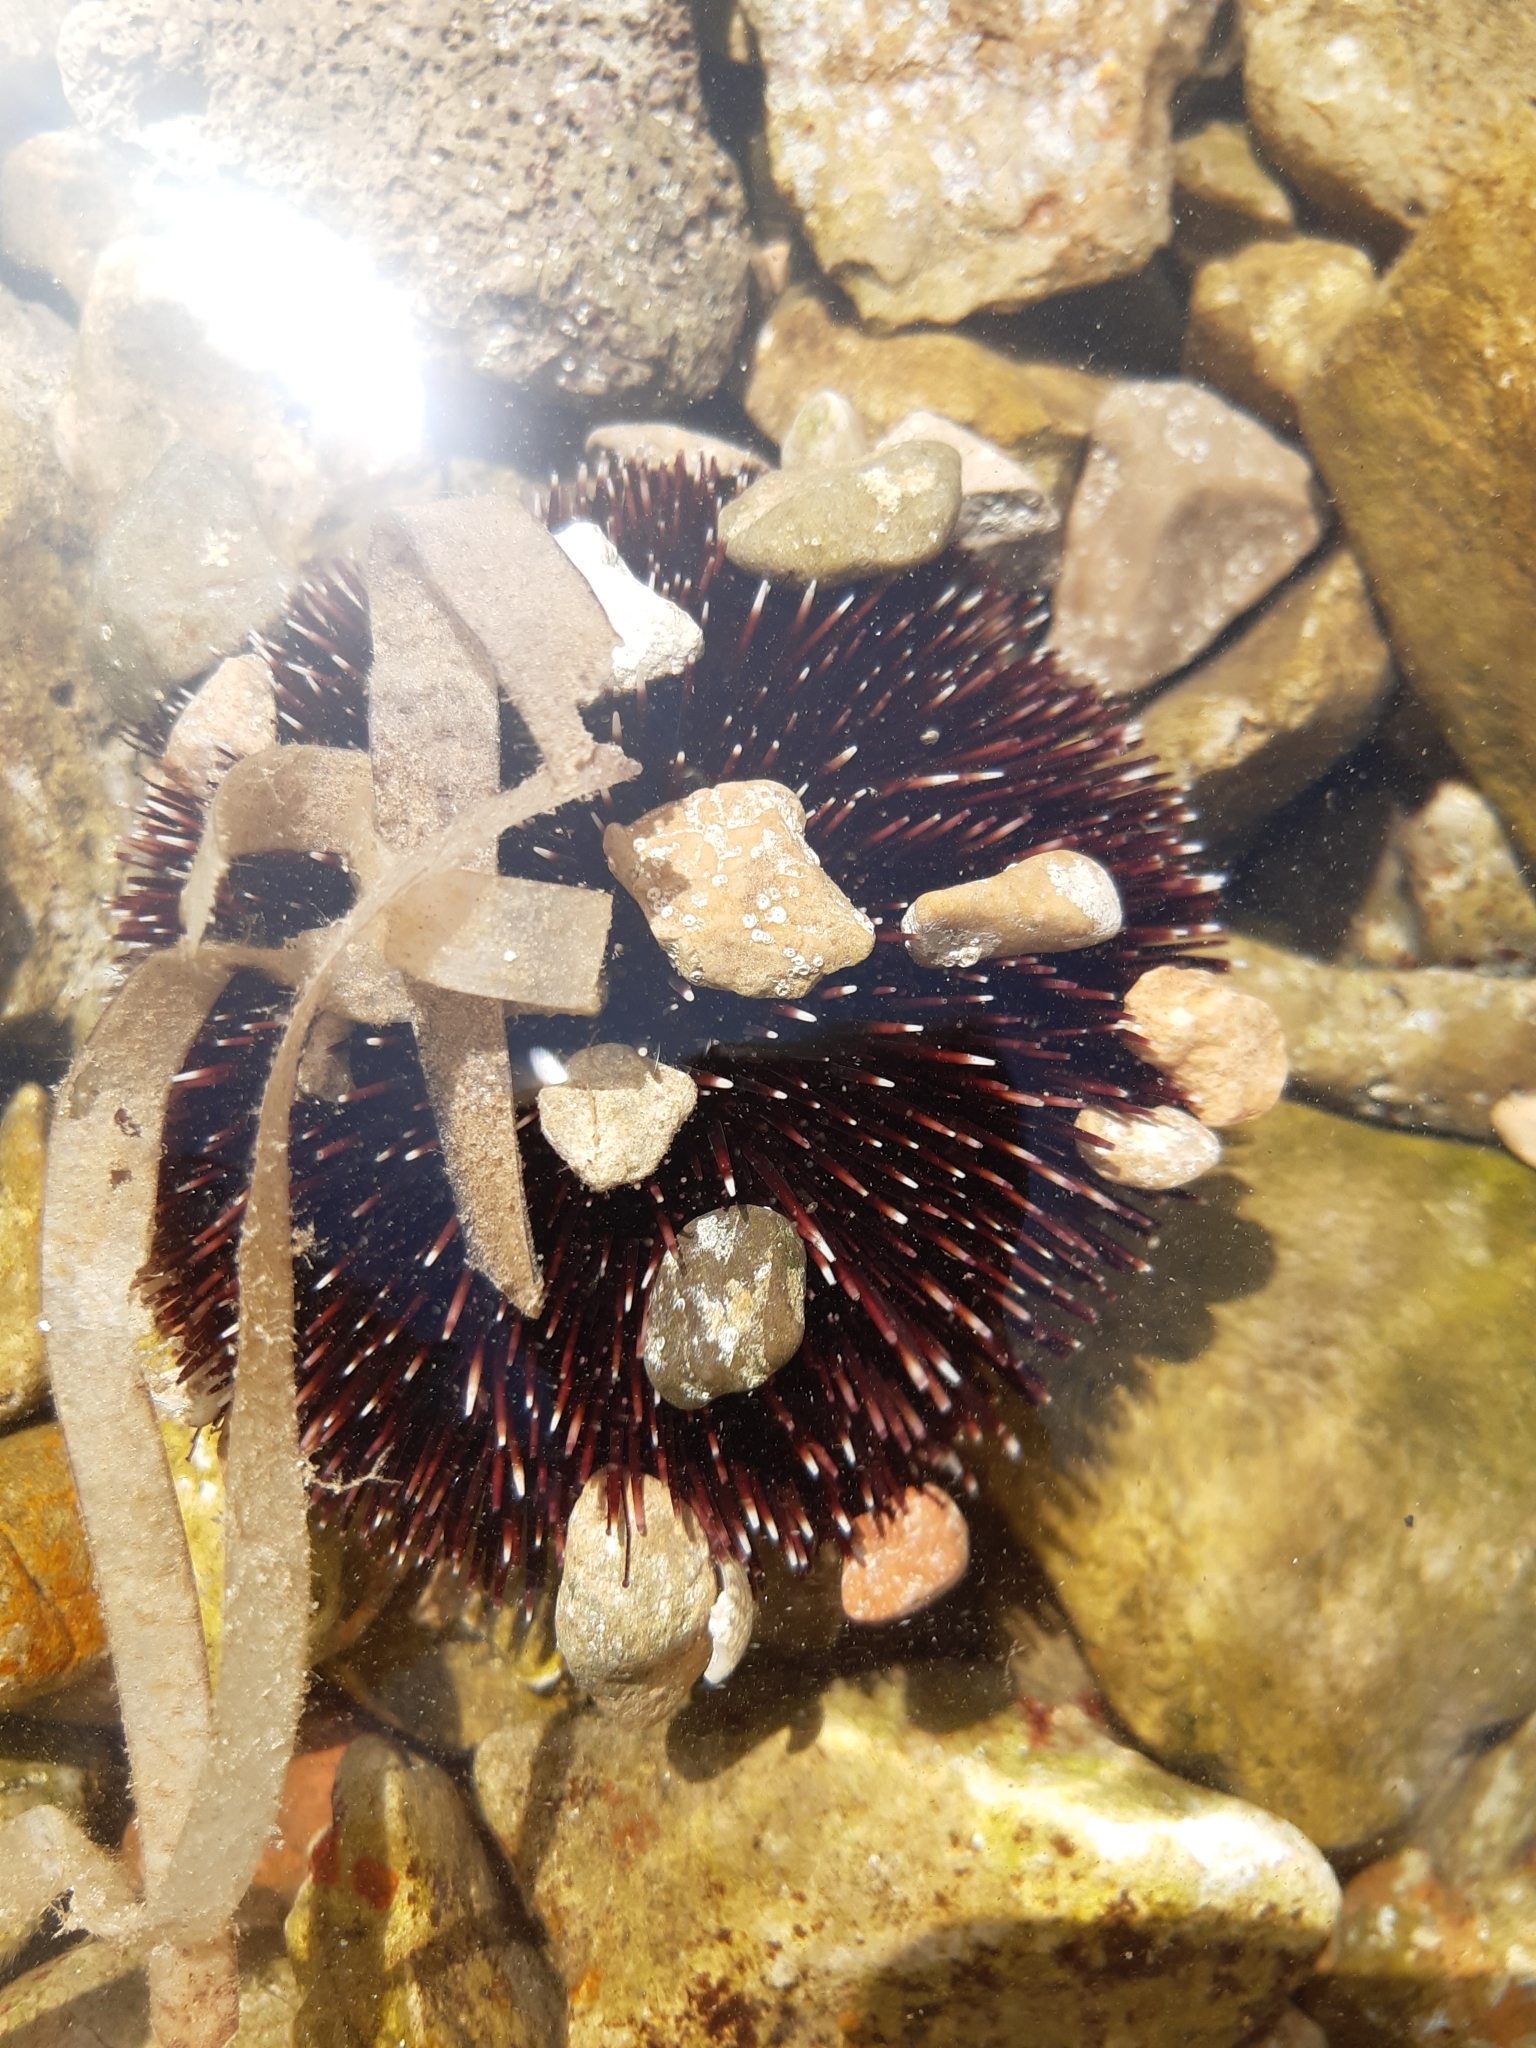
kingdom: Animalia
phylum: Echinodermata
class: Echinoidea
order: Camarodonta
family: Toxopneustidae
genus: Sphaerechinus
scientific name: Sphaerechinus granularis
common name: Violet sea urchin
